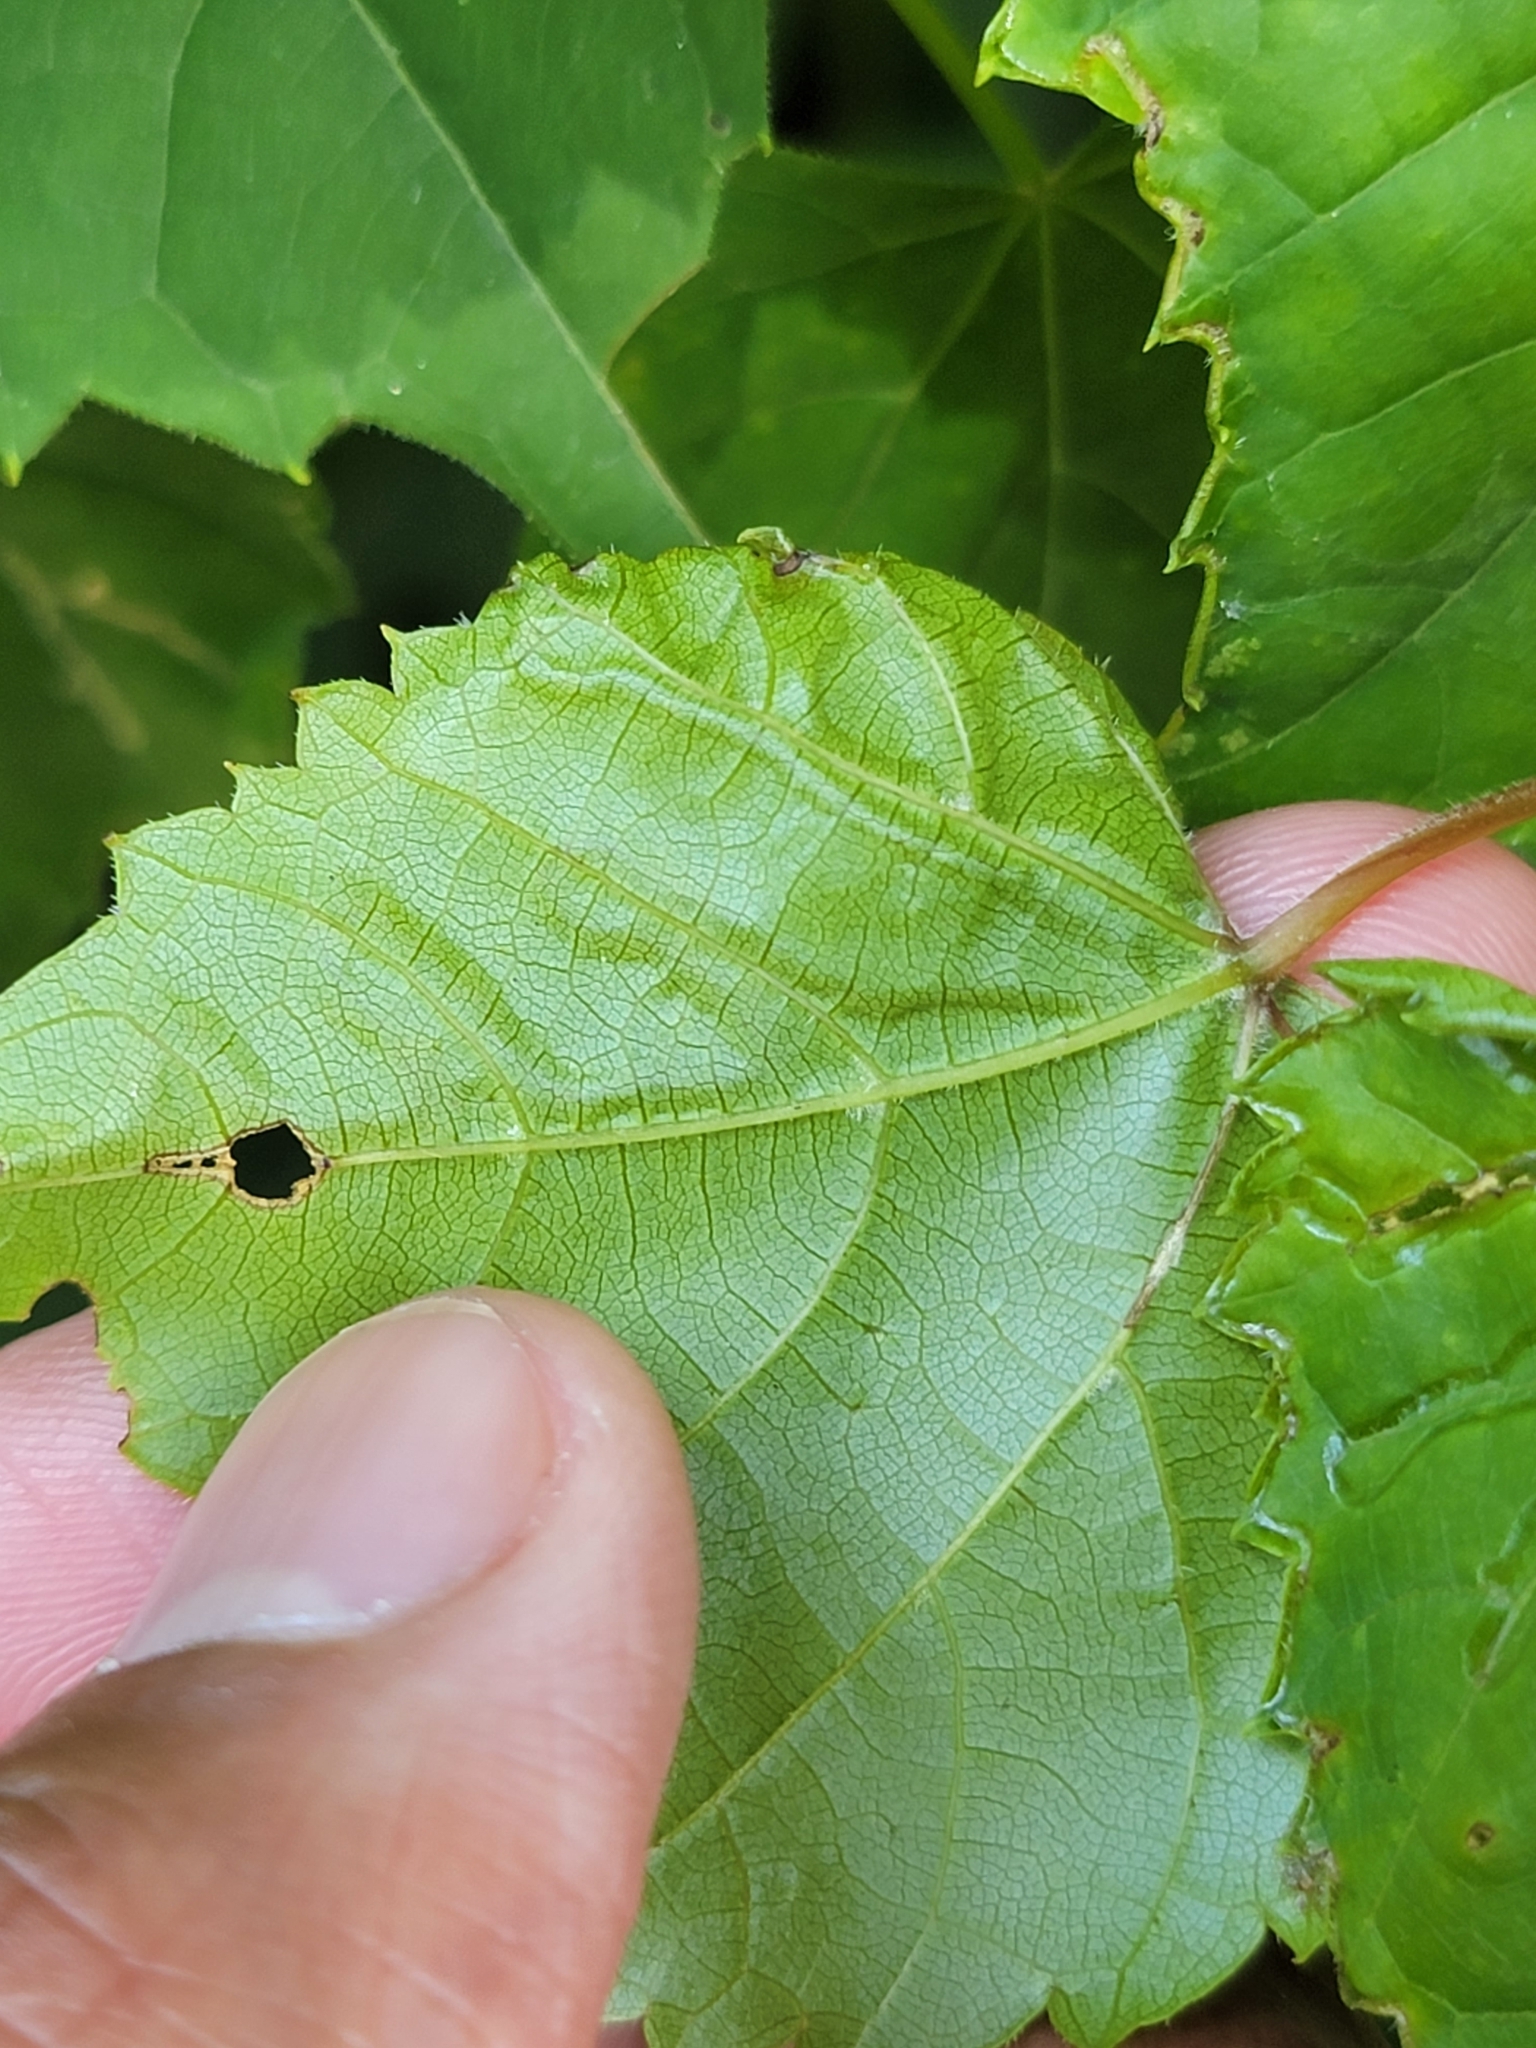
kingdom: Animalia
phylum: Arthropoda
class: Insecta
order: Lepidoptera
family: Gracillariidae
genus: Phyllocnistis
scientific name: Phyllocnistis vitegenella
